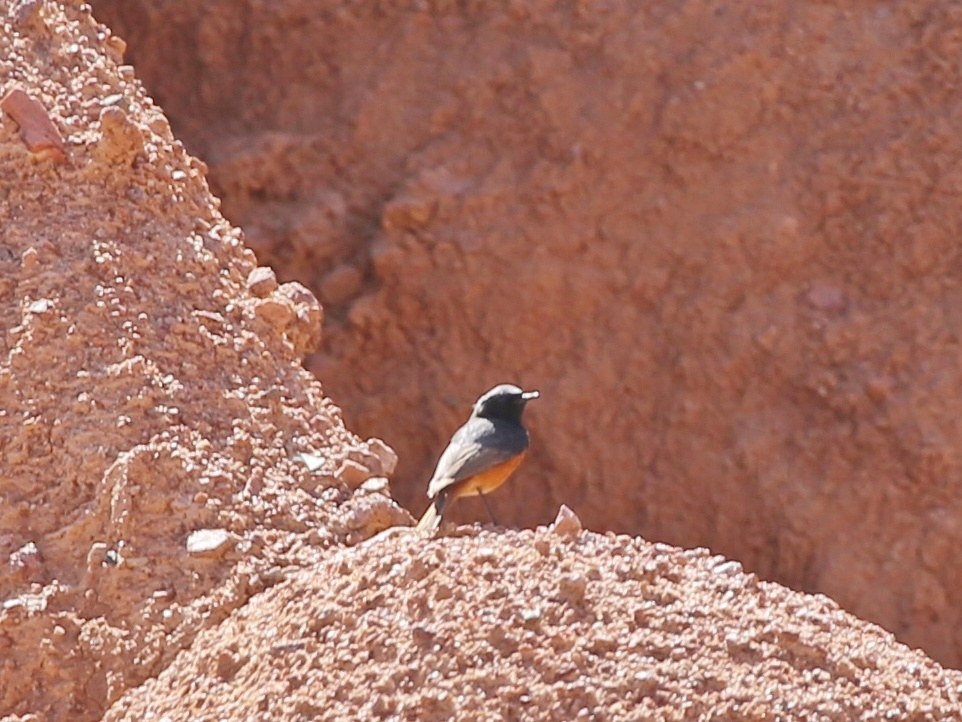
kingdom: Animalia
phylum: Chordata
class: Aves
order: Passeriformes
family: Muscicapidae
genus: Phoenicurus
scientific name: Phoenicurus ochruros
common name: Black redstart
